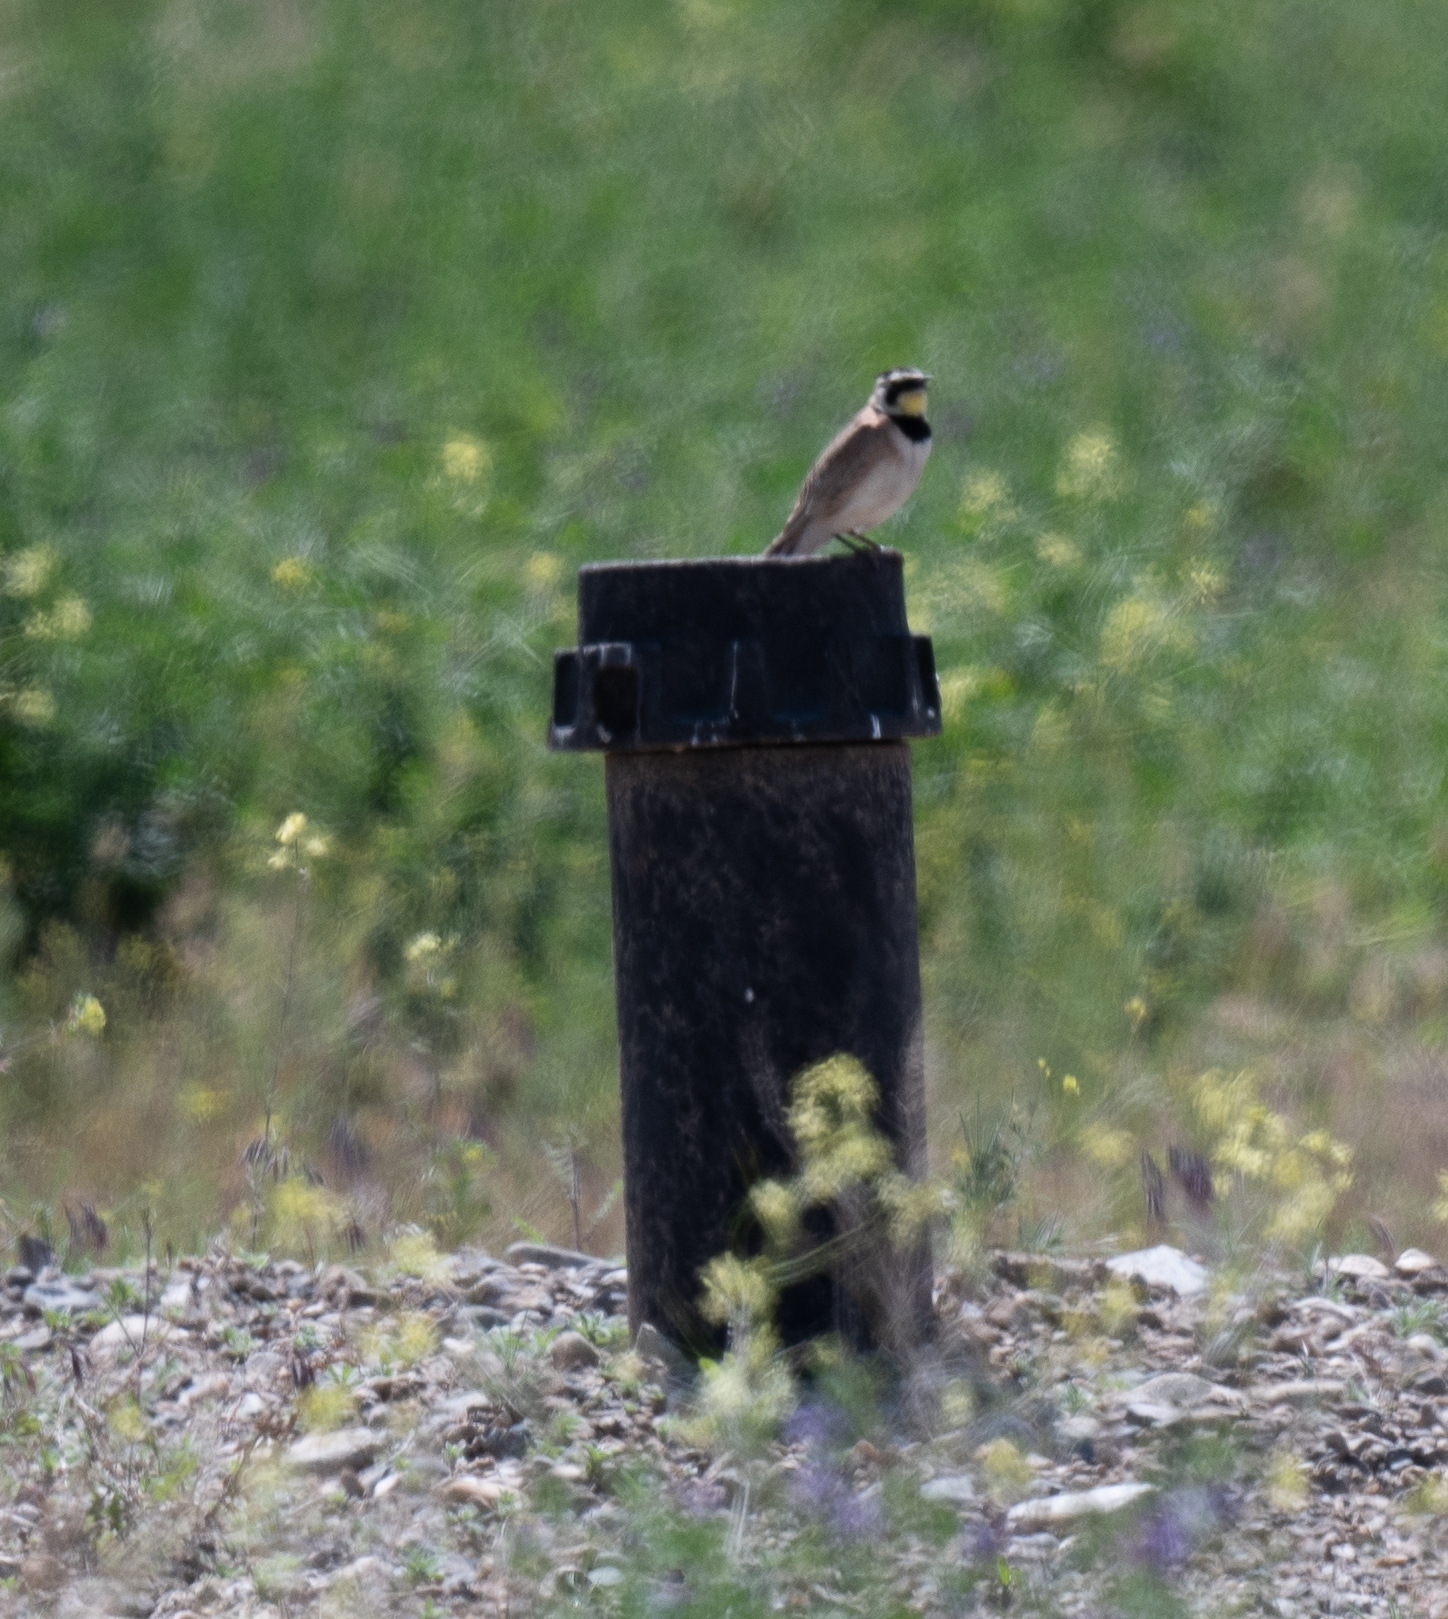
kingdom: Animalia
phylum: Chordata
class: Aves
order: Passeriformes
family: Alaudidae
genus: Eremophila
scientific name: Eremophila alpestris
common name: Horned lark
